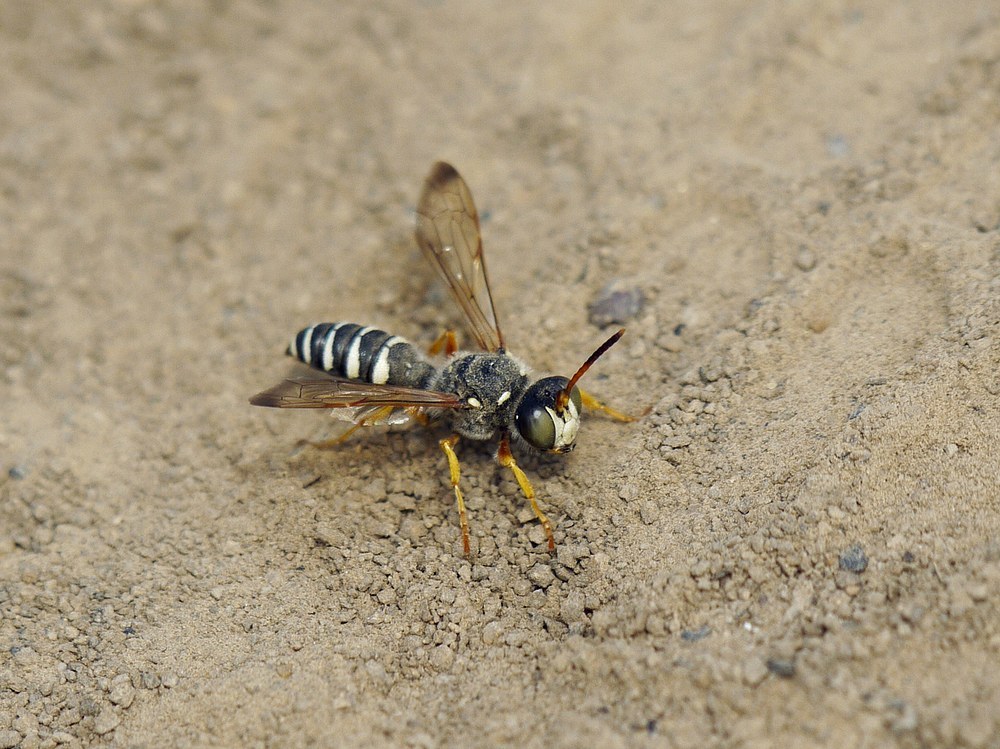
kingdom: Animalia
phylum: Arthropoda
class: Insecta
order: Hymenoptera
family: Crabronidae
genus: Cerceris
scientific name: Cerceris tuberculata
